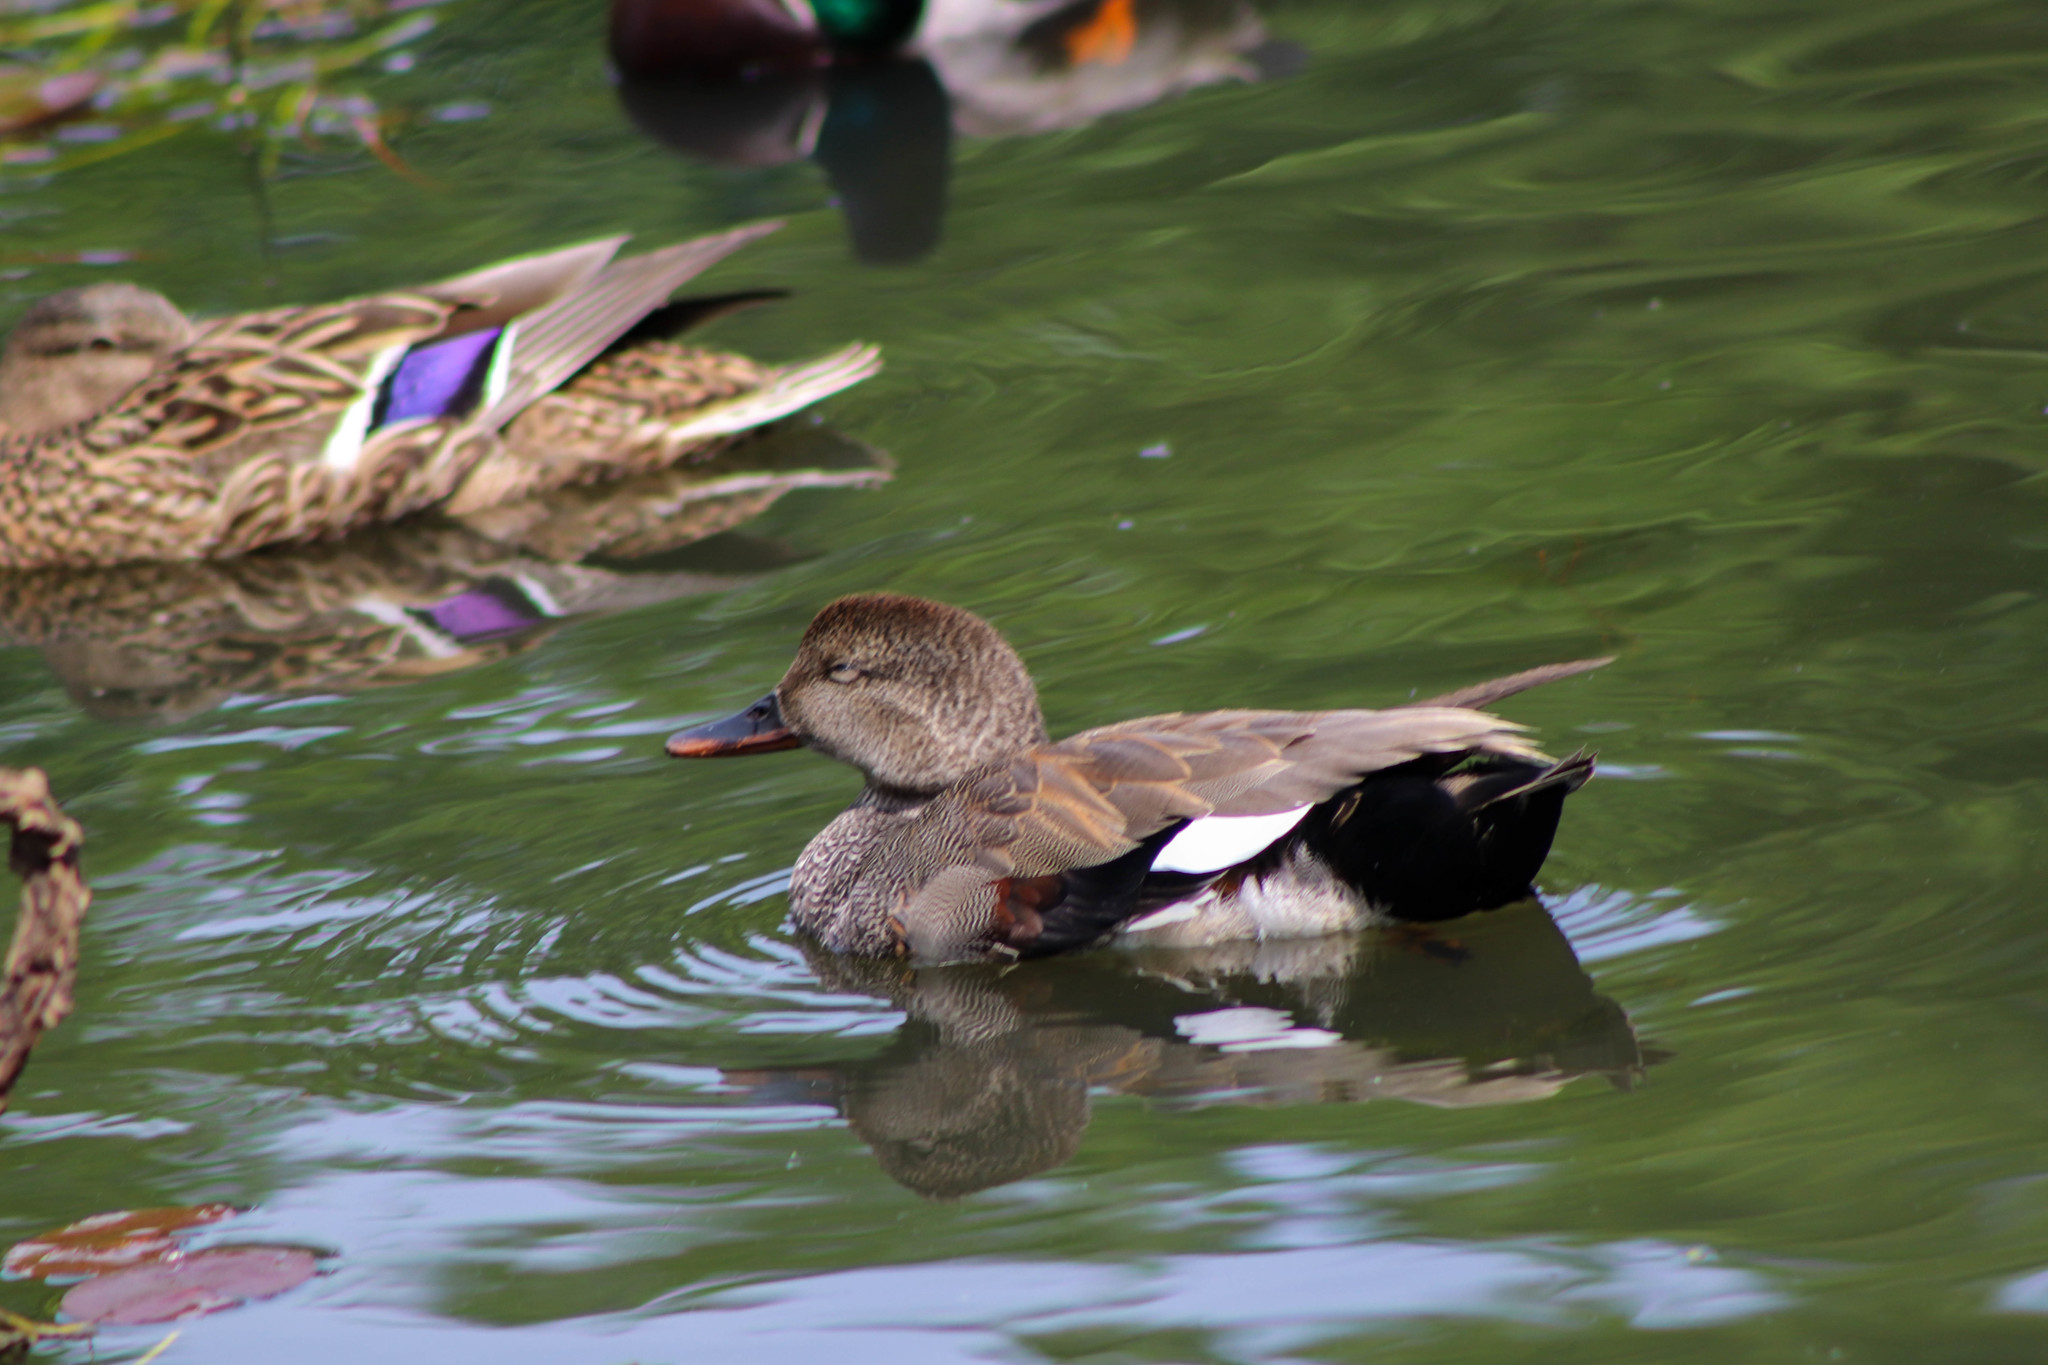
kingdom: Animalia
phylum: Chordata
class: Aves
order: Anseriformes
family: Anatidae
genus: Mareca
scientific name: Mareca strepera
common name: Gadwall
